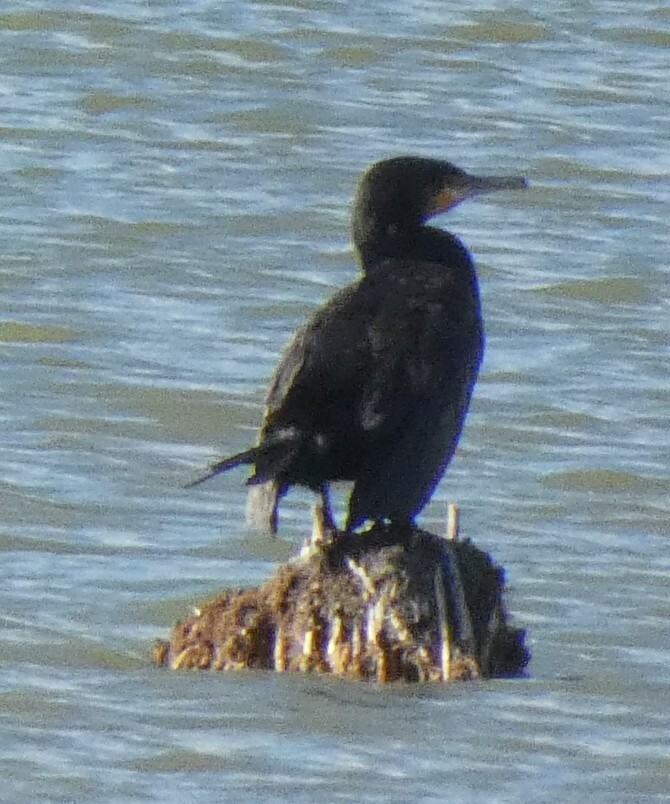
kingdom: Animalia
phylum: Chordata
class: Aves
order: Suliformes
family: Phalacrocoracidae
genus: Phalacrocorax
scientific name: Phalacrocorax carbo
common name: Great cormorant
